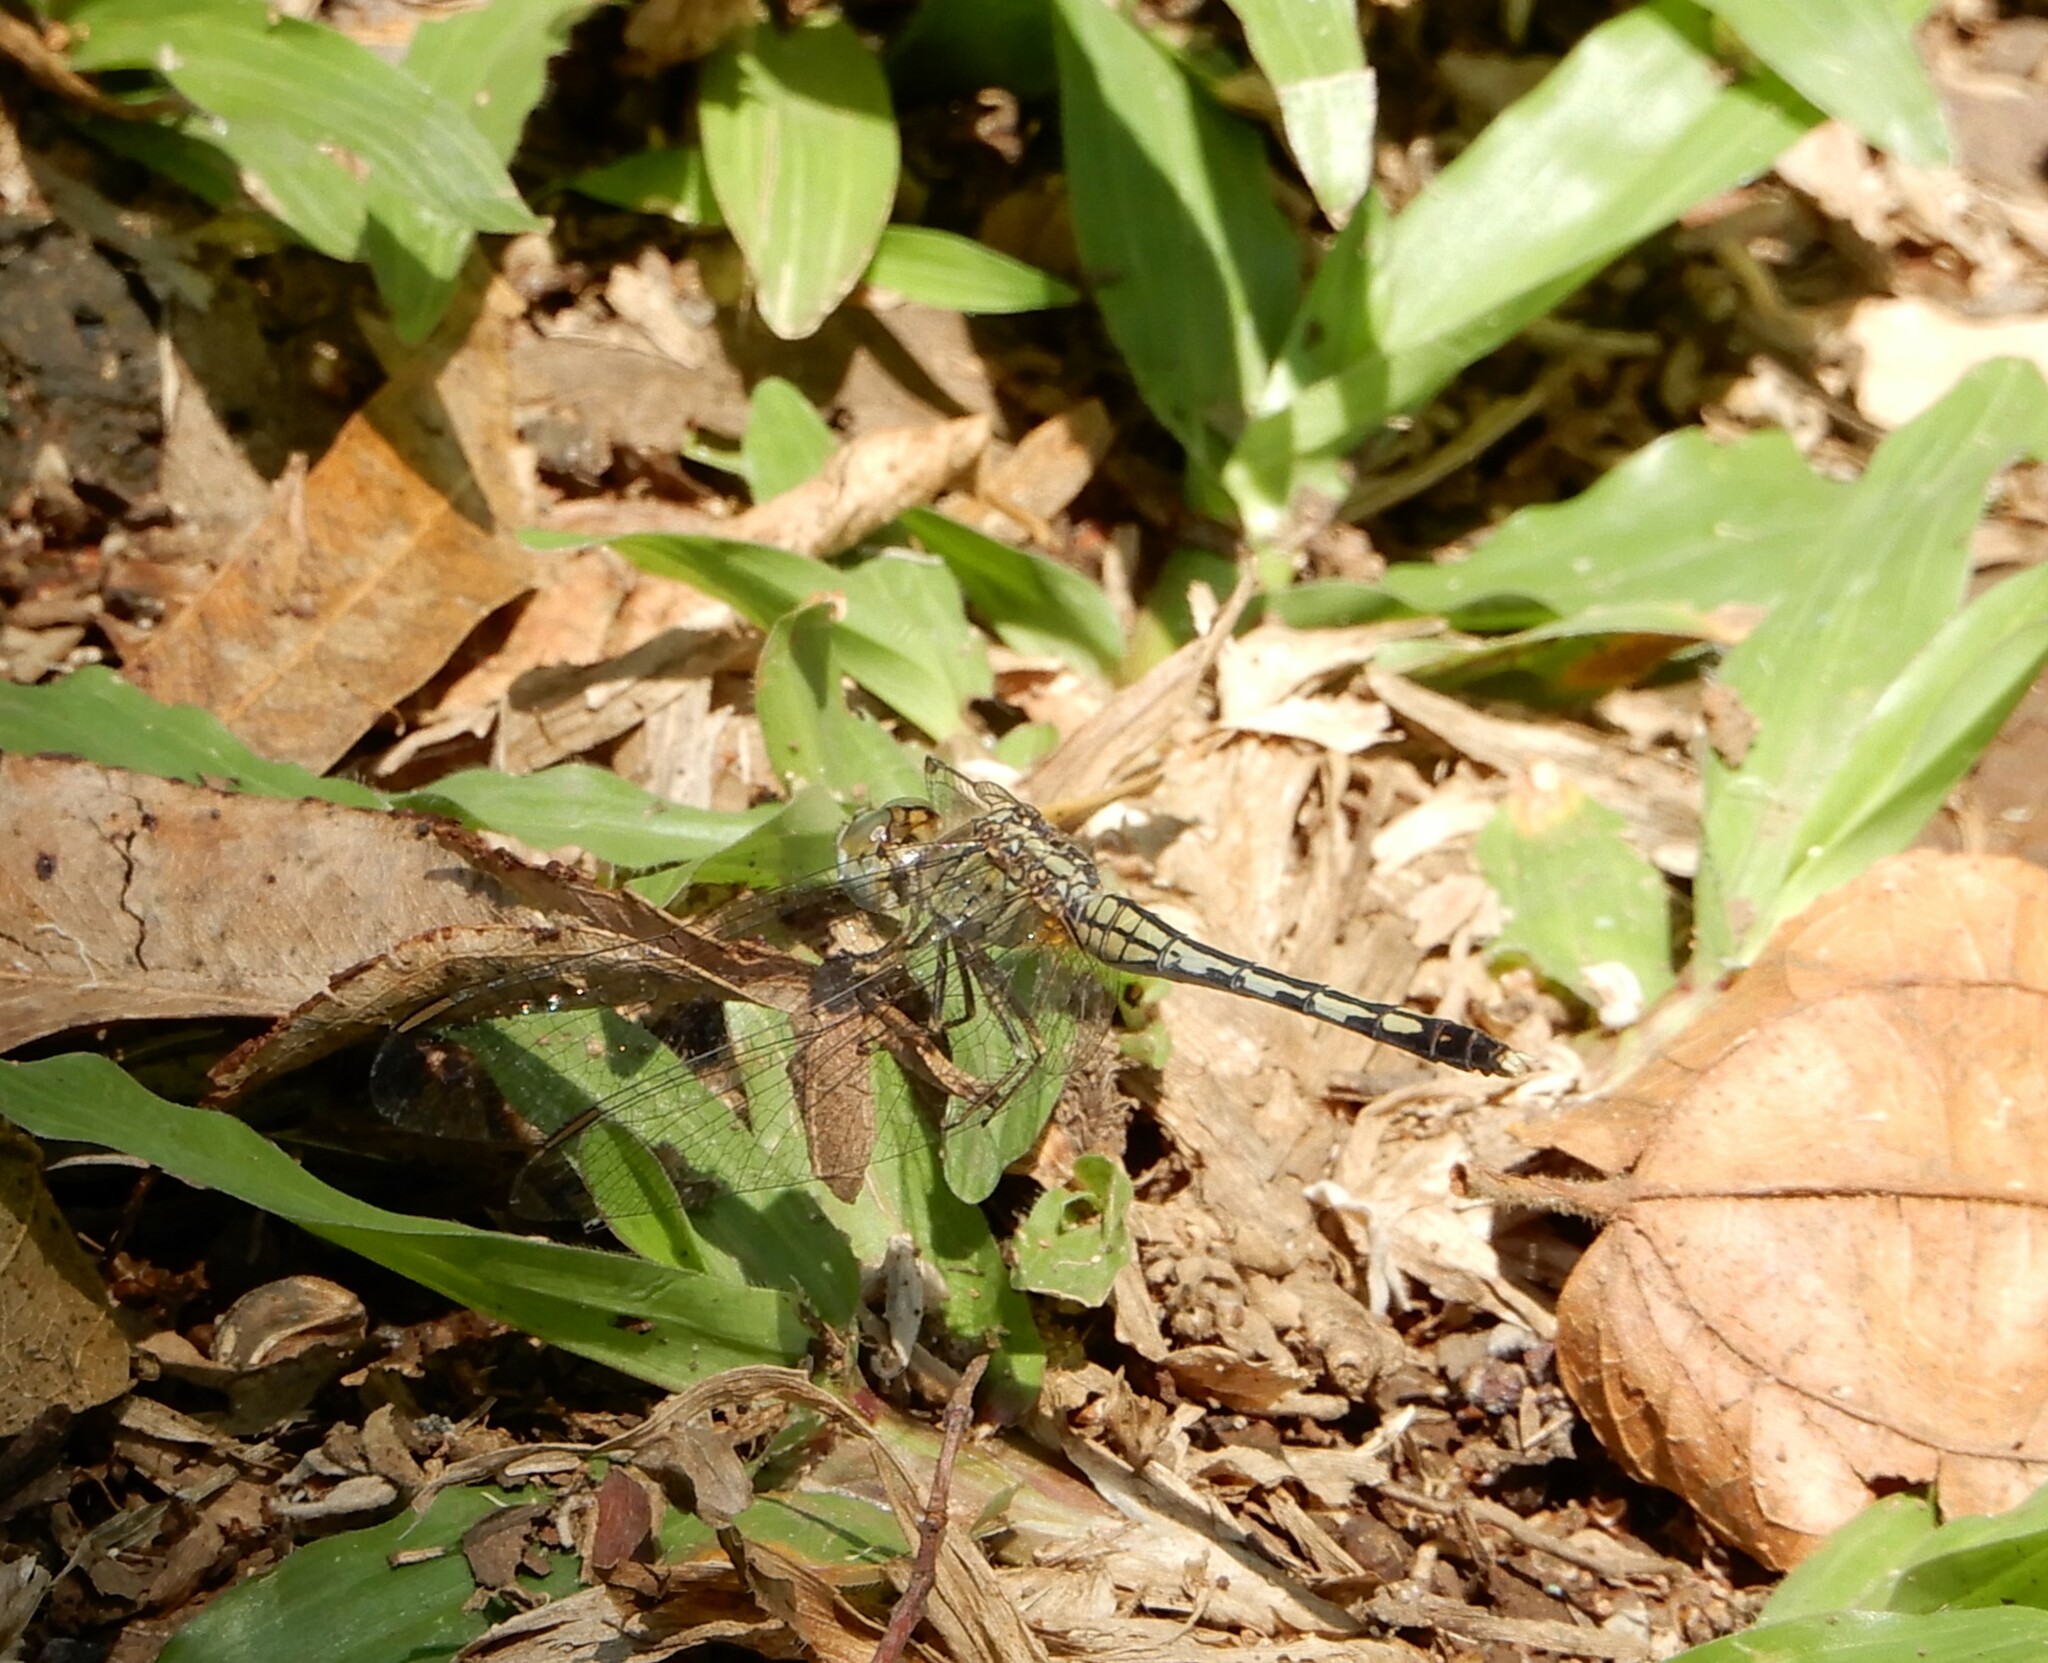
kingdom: Animalia
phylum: Arthropoda
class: Insecta
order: Odonata
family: Libellulidae
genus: Diplacodes
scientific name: Diplacodes trivialis
